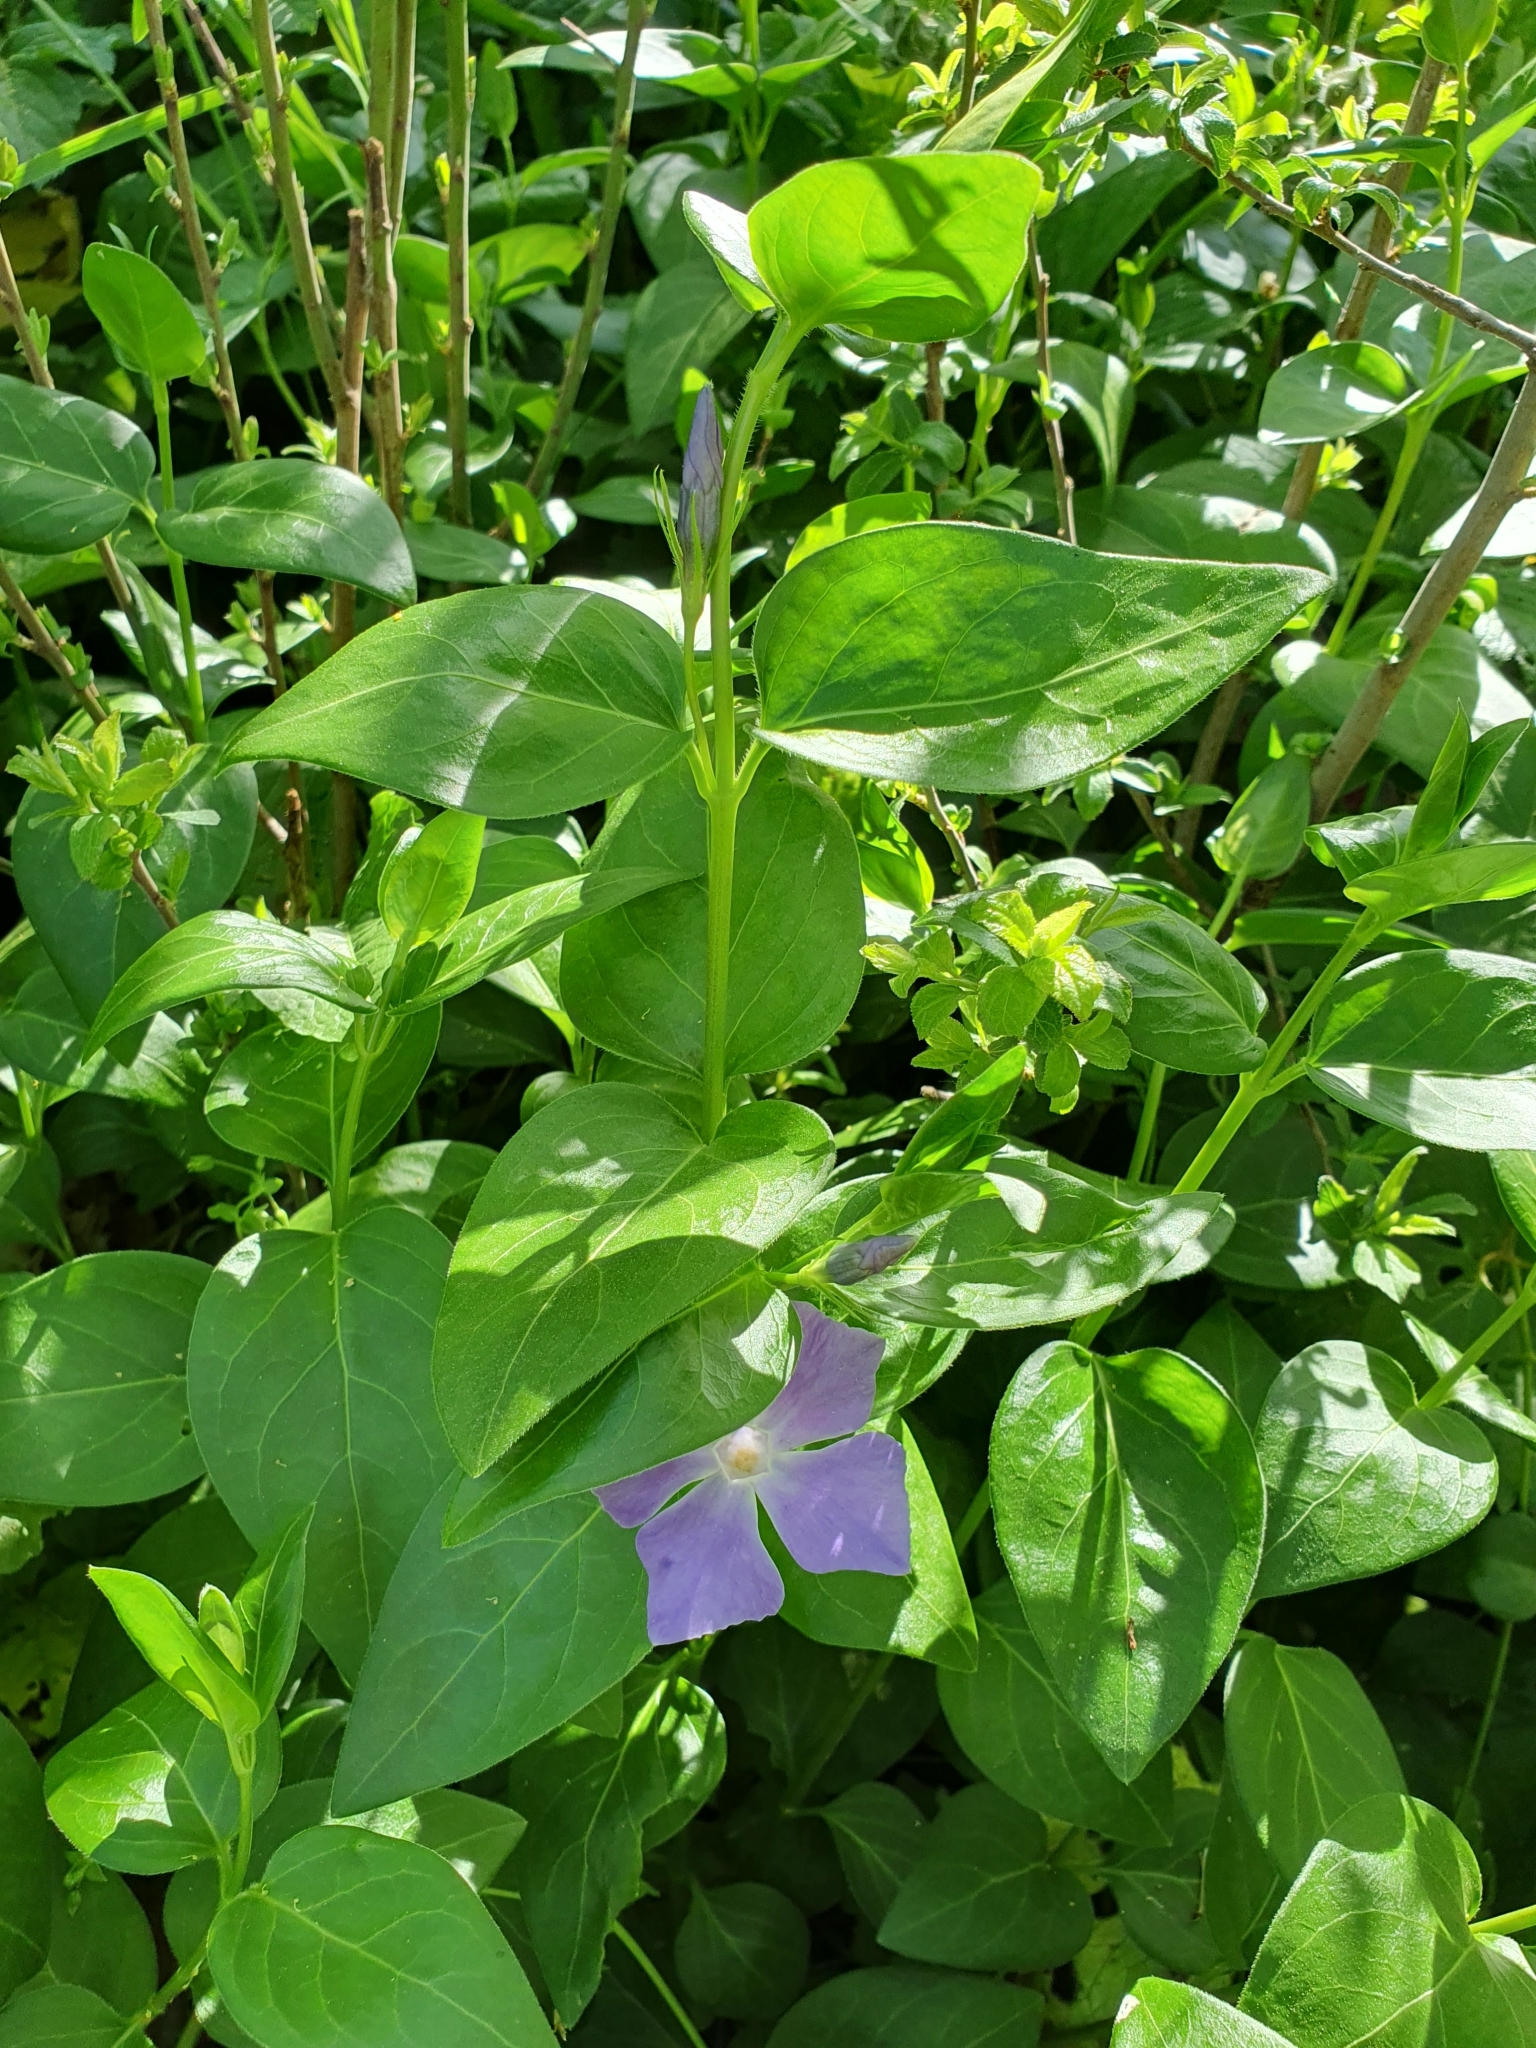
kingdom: Plantae
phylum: Tracheophyta
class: Magnoliopsida
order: Gentianales
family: Apocynaceae
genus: Vinca
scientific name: Vinca major
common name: Greater periwinkle
